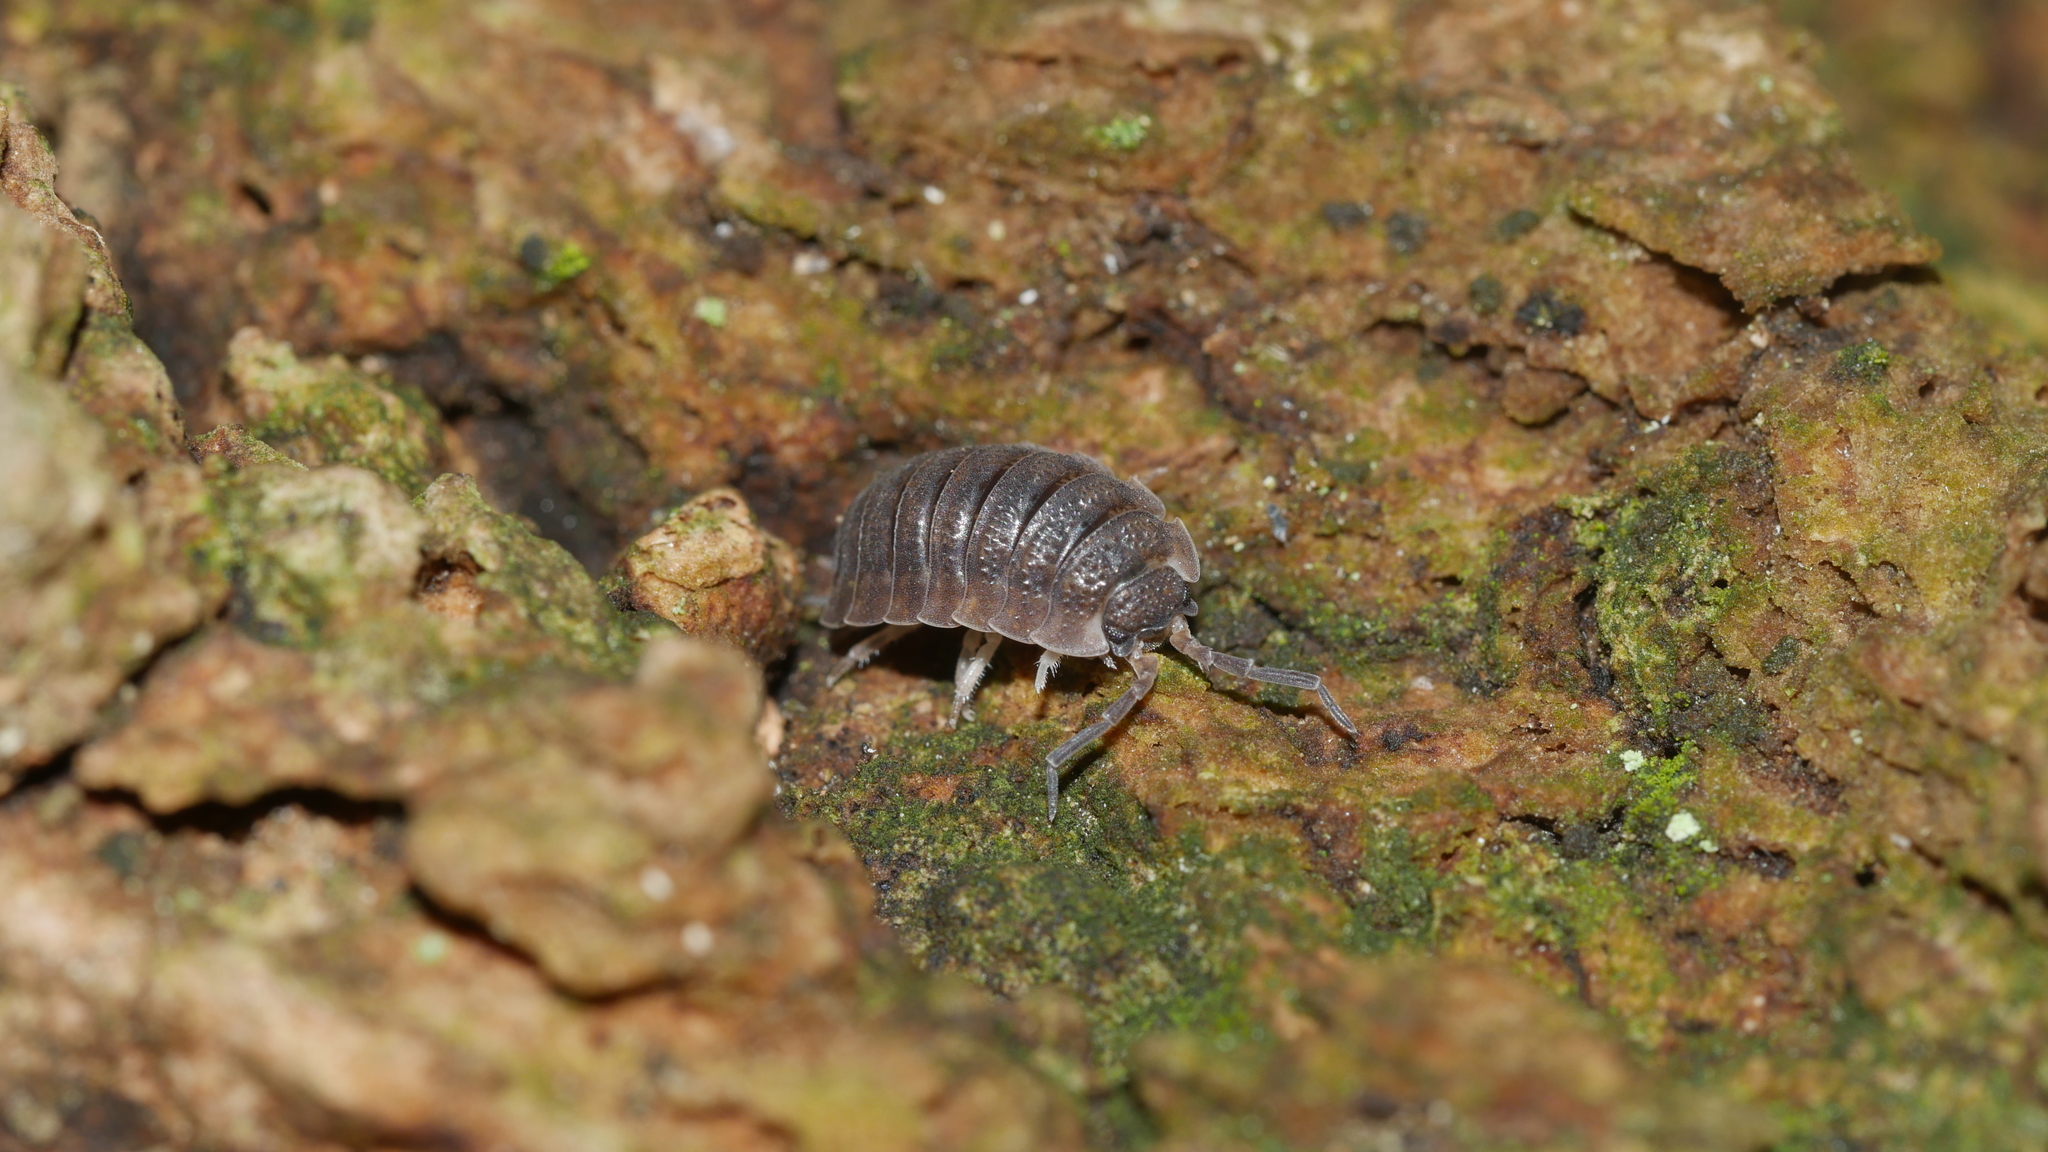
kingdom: Animalia
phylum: Arthropoda
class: Malacostraca
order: Isopoda
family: Porcellionidae
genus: Porcellio
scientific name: Porcellio scaber
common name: Common rough woodlouse
